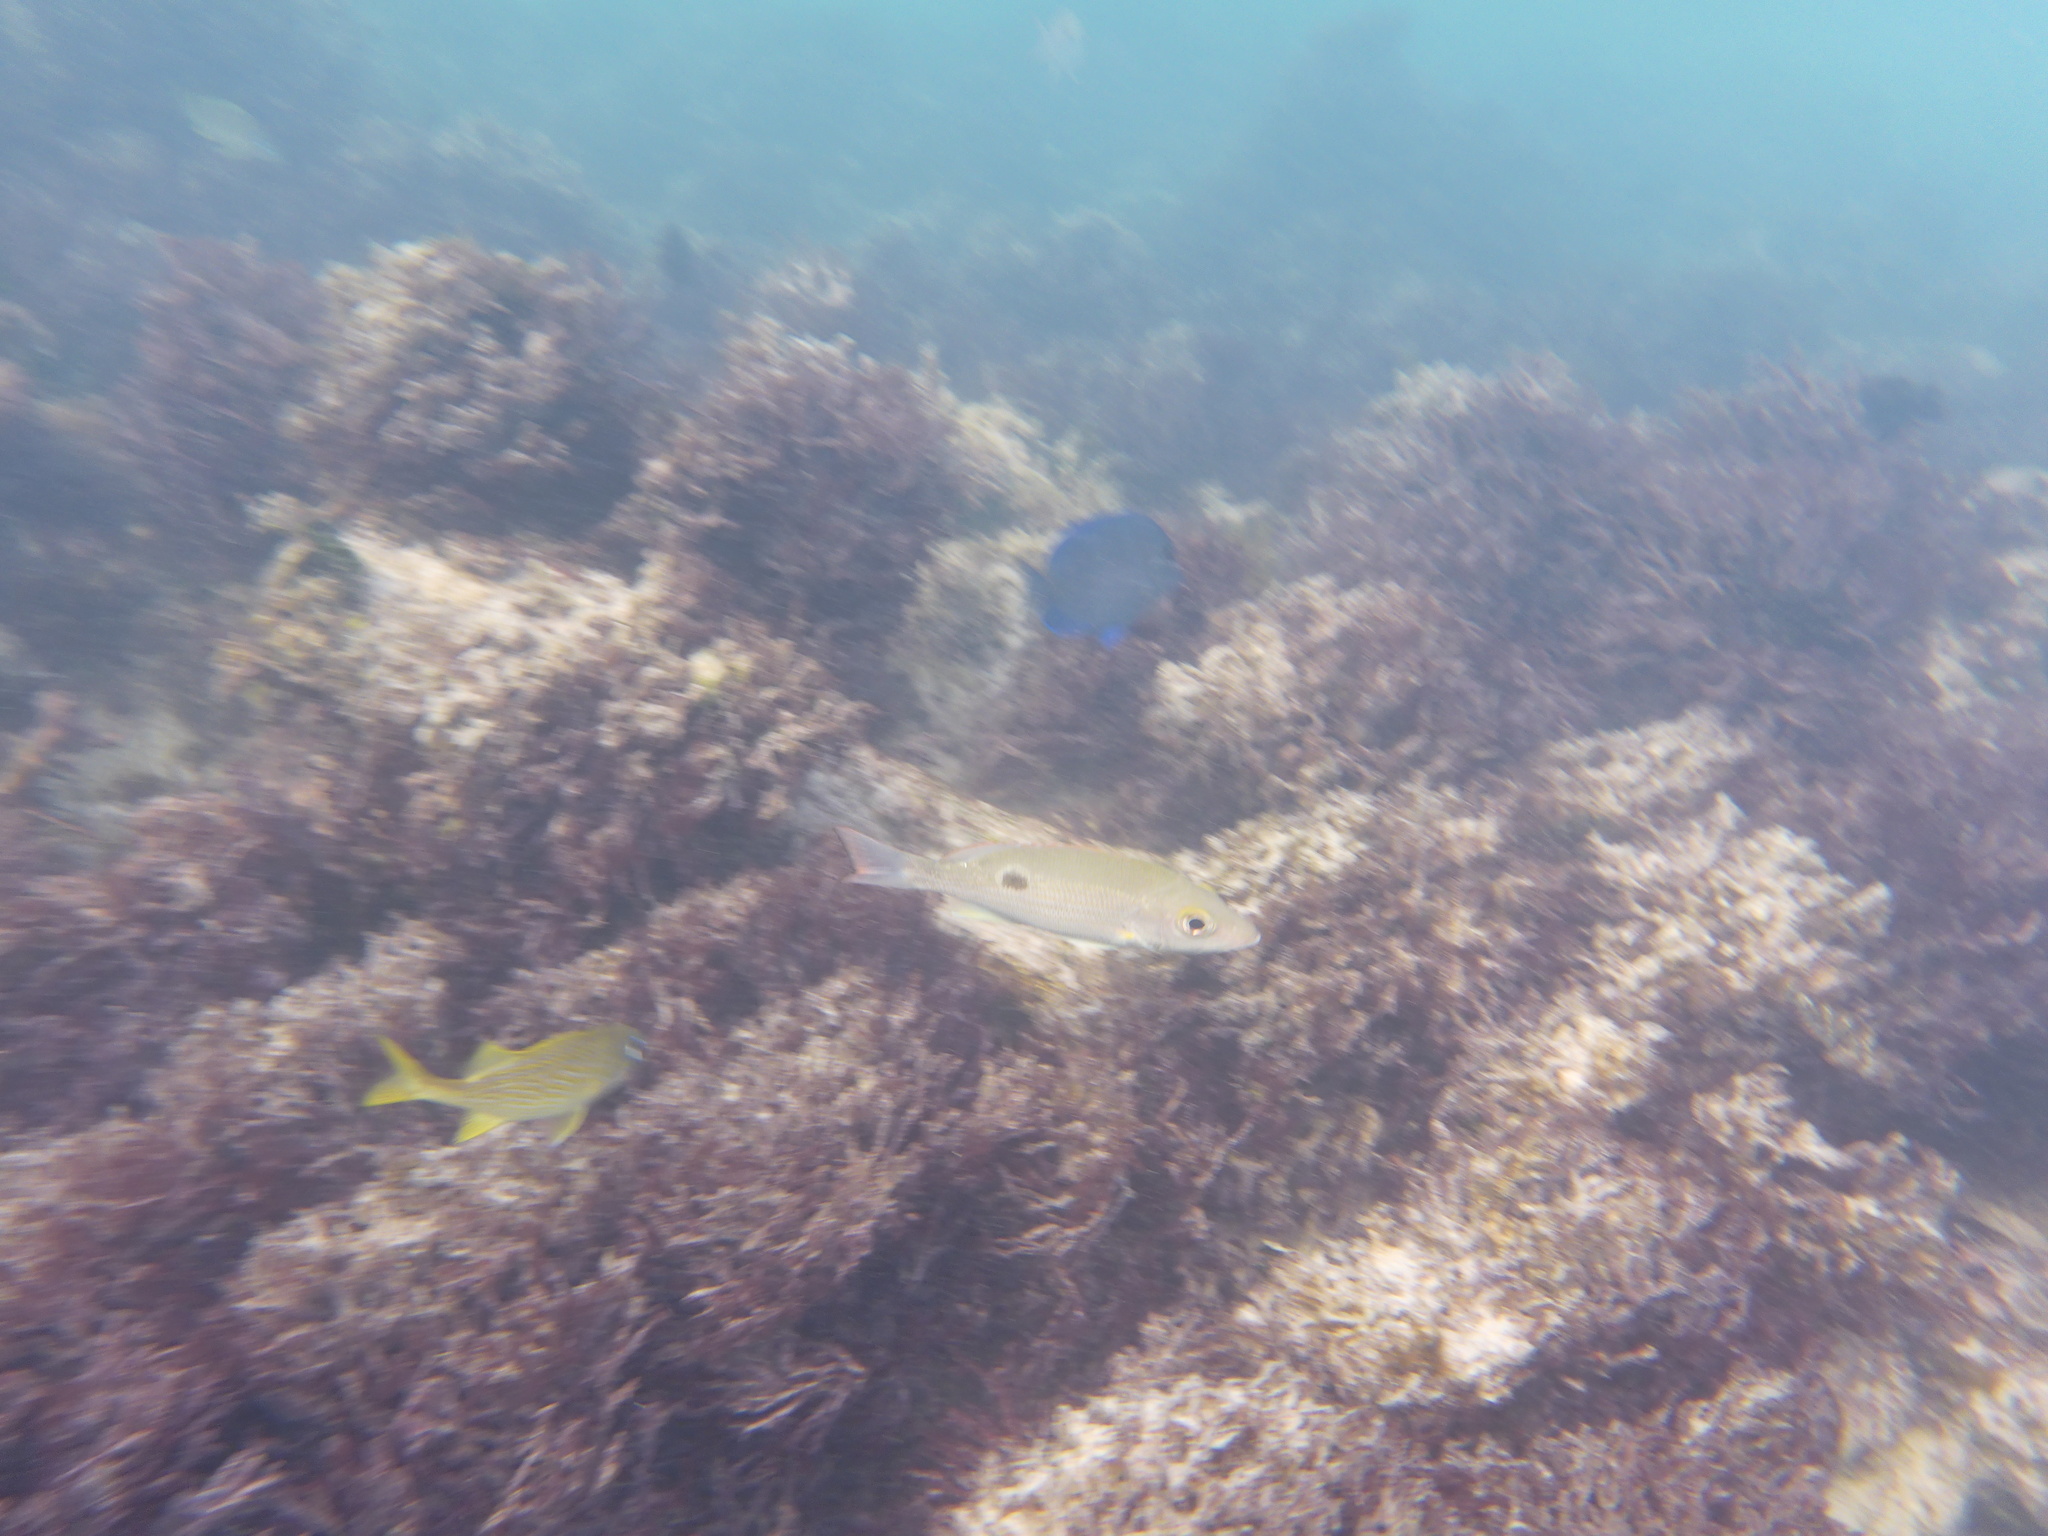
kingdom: Animalia
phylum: Chordata
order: Perciformes
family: Lutjanidae
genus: Lutjanus
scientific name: Lutjanus mahogoni
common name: Spot snapper
